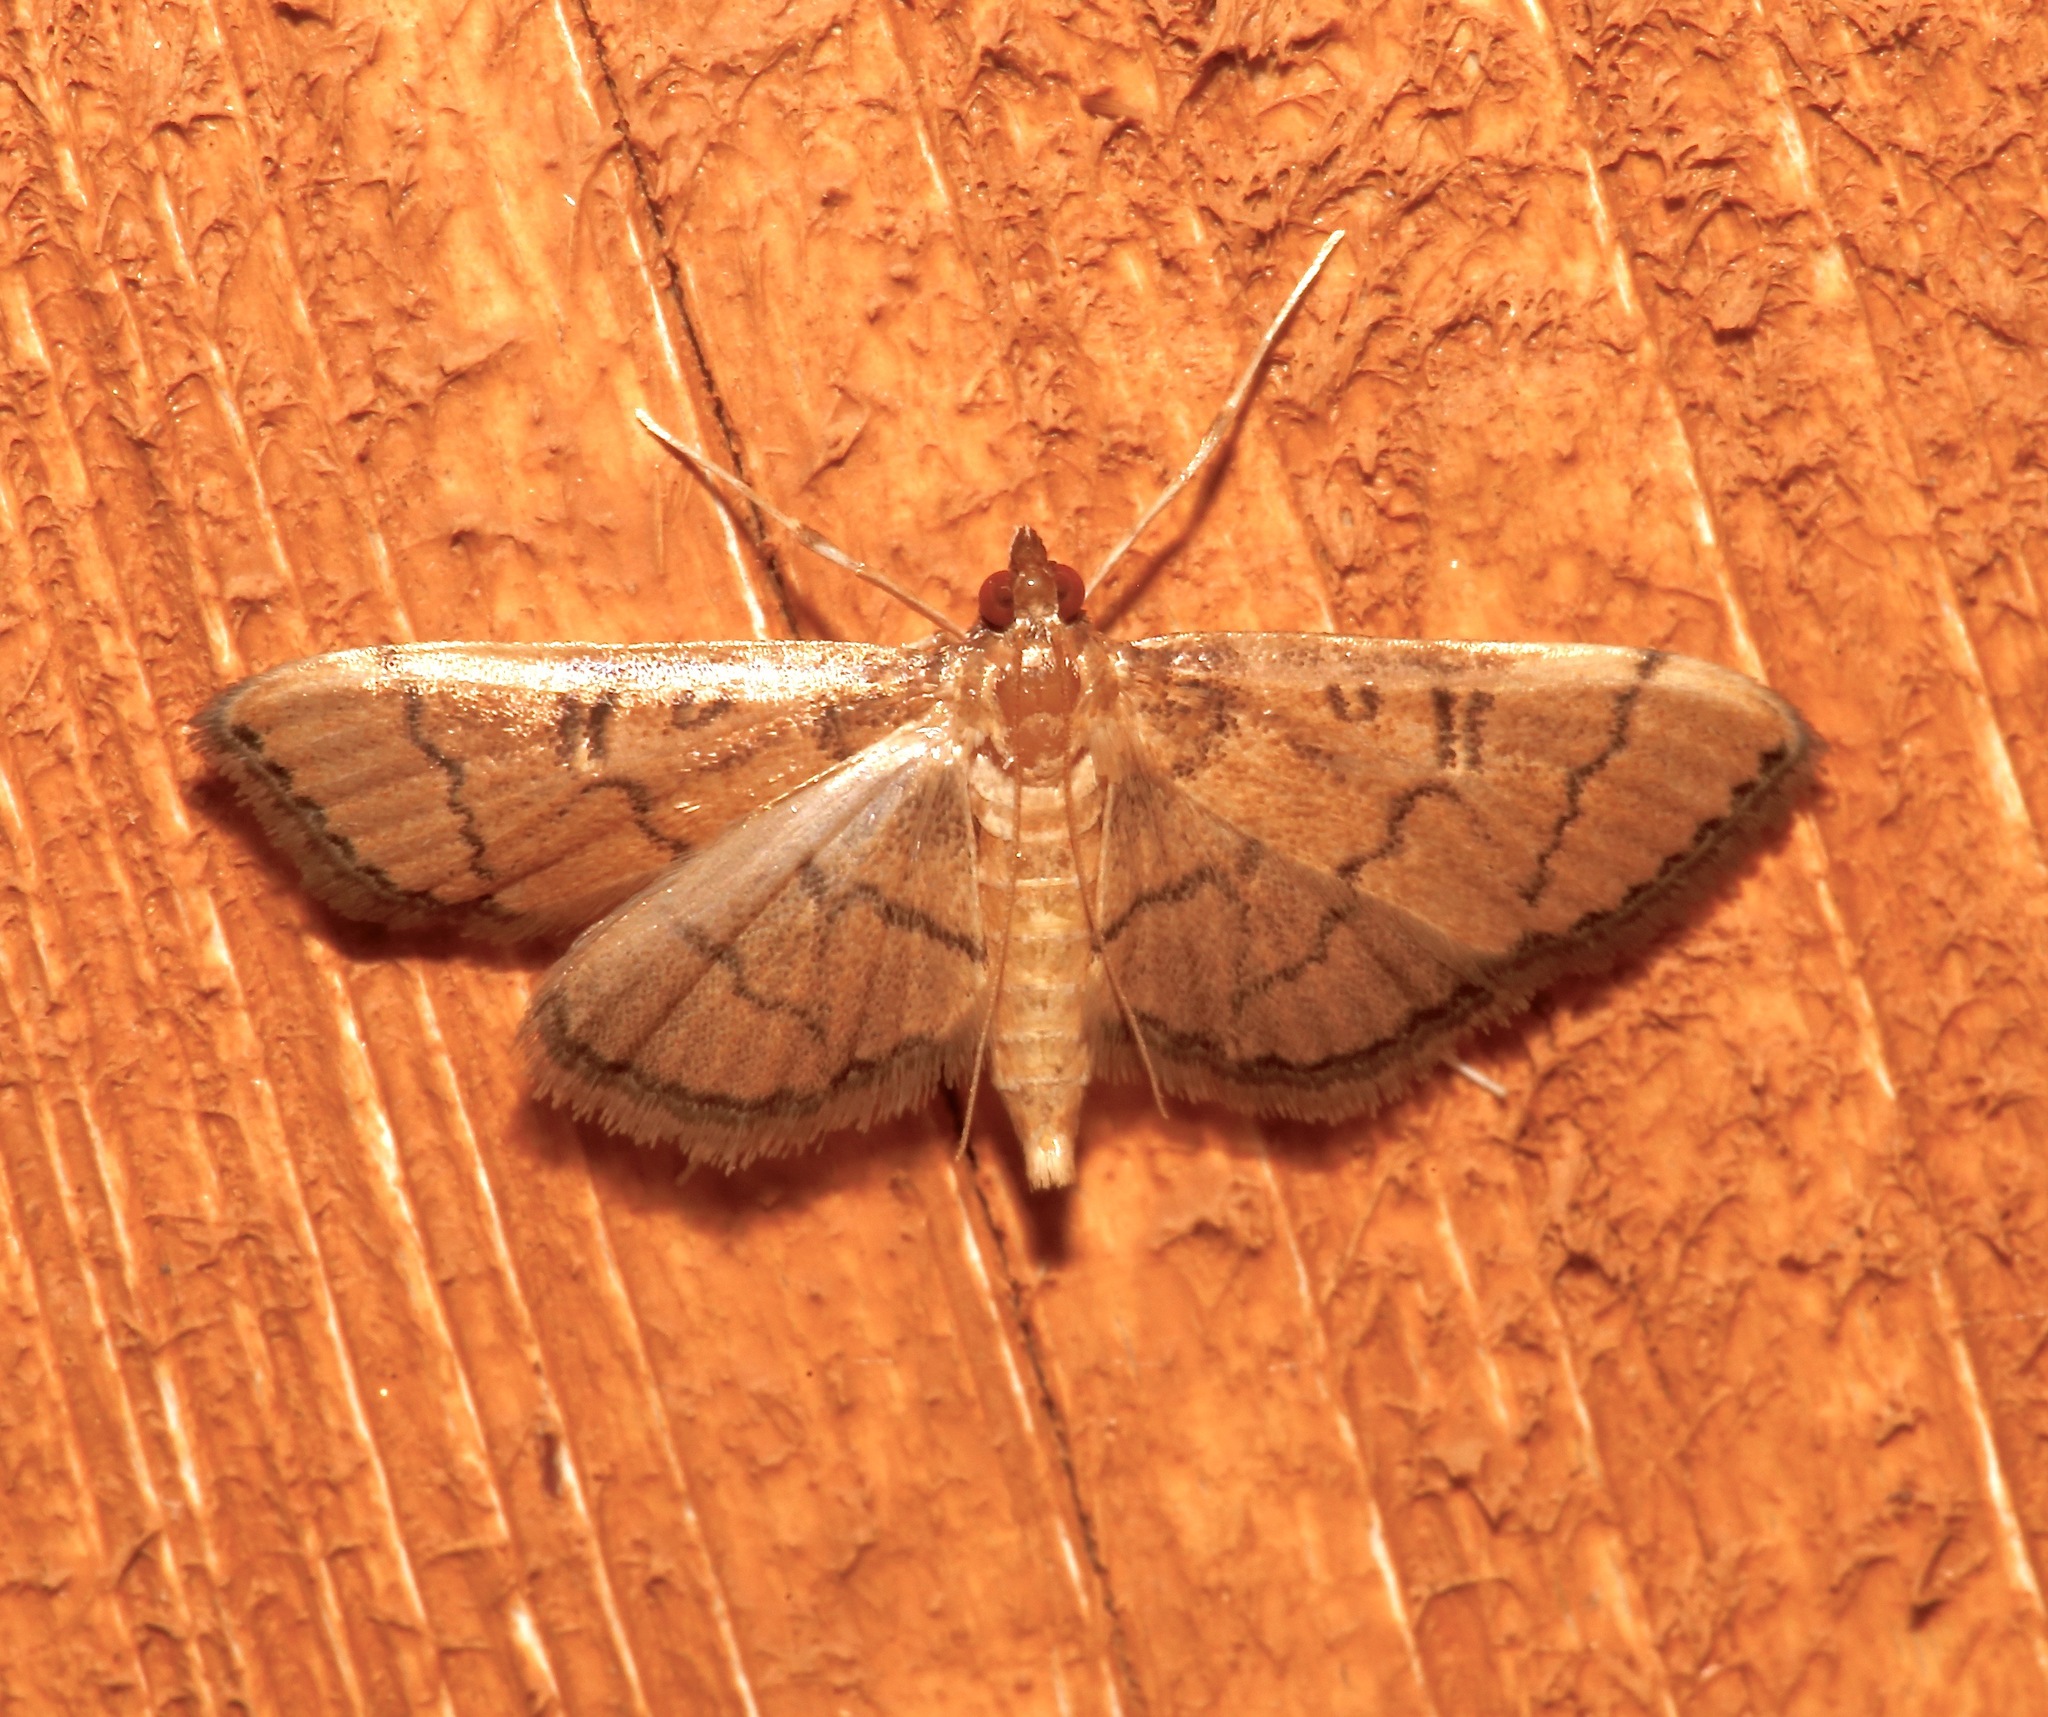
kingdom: Animalia
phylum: Arthropoda
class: Insecta
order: Lepidoptera
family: Crambidae
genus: Lamprosema
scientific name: Lamprosema Blepharomastix ranalis
